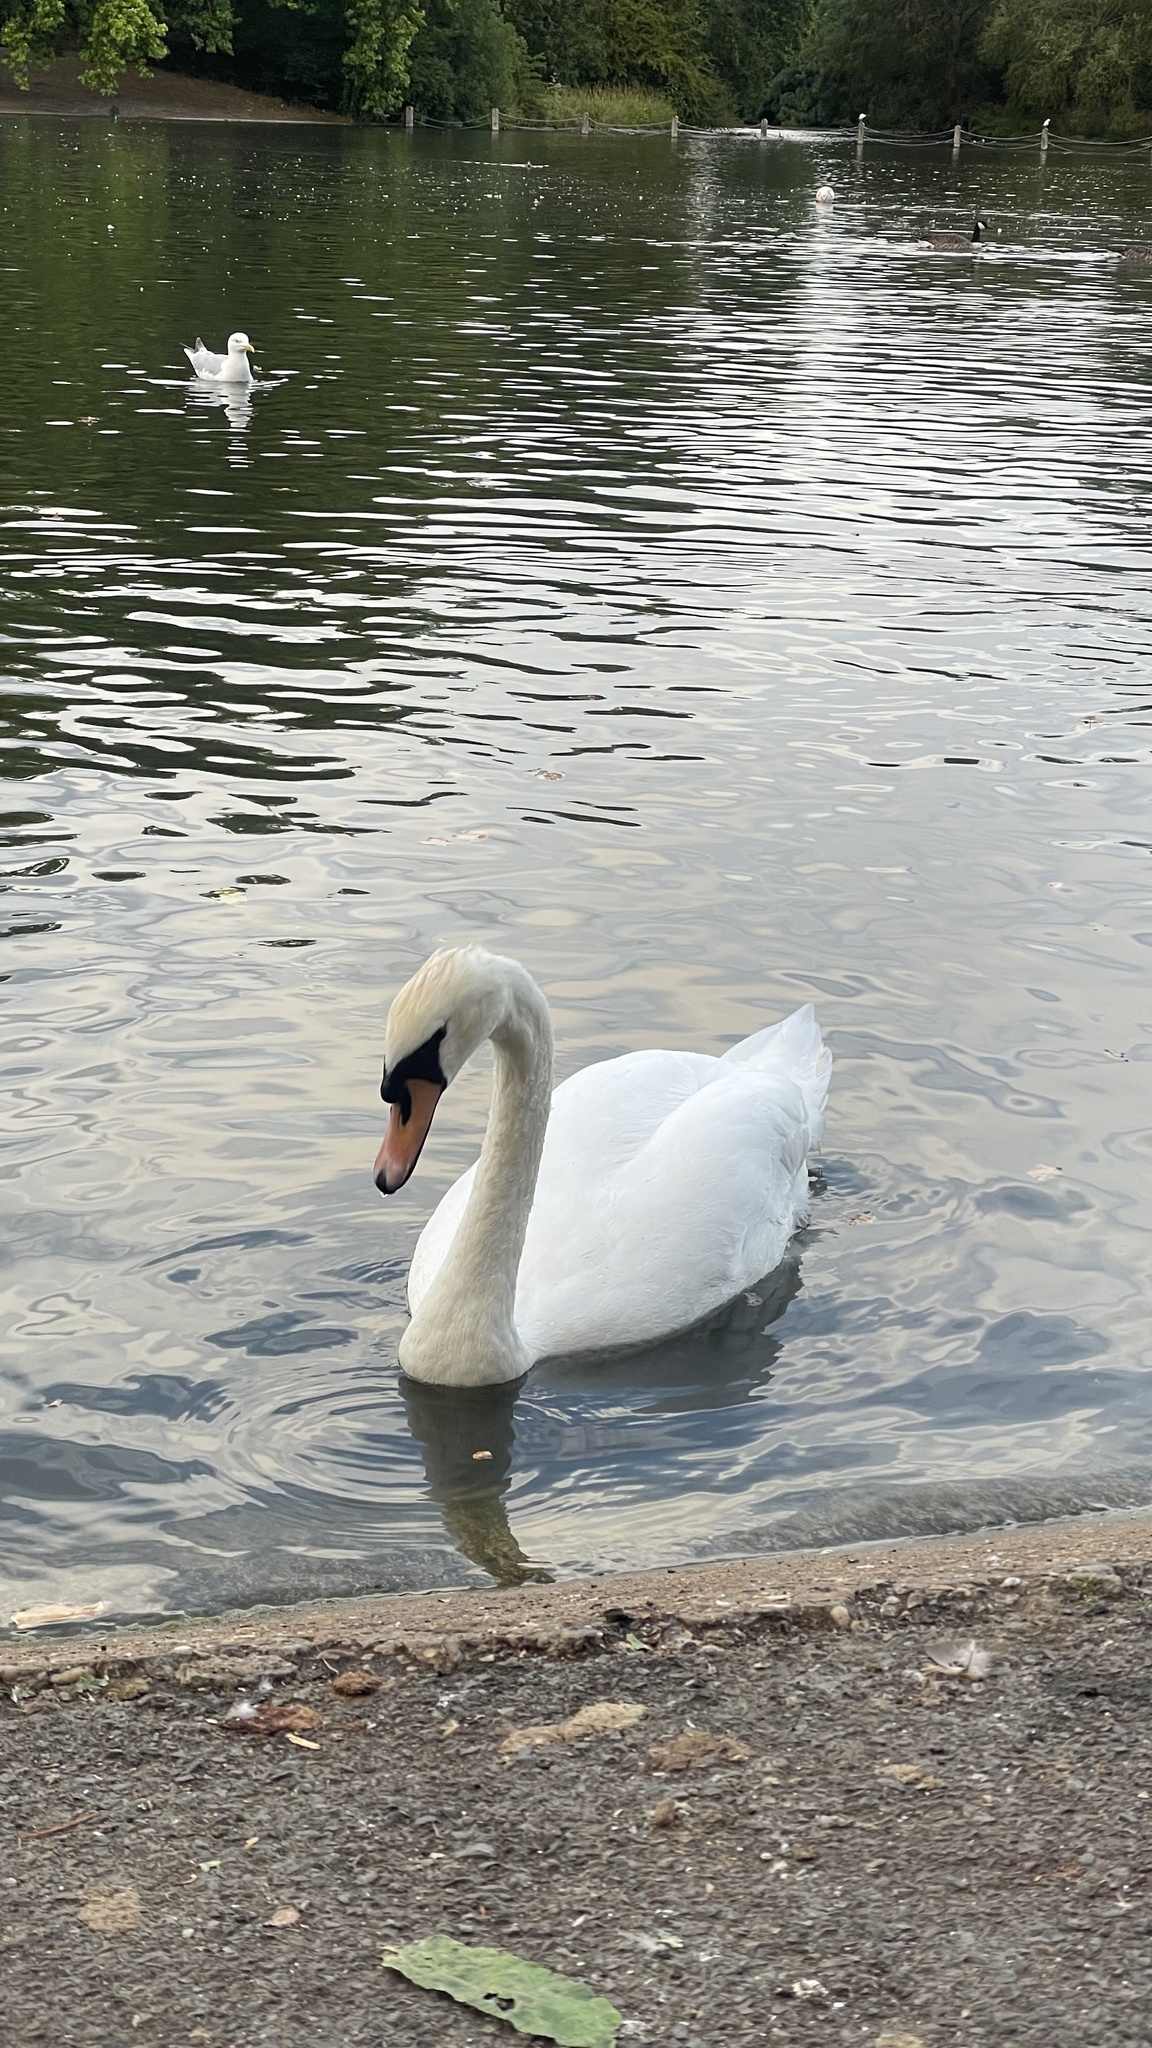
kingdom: Animalia
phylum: Chordata
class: Aves
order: Anseriformes
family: Anatidae
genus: Cygnus
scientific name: Cygnus olor
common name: Mute swan
